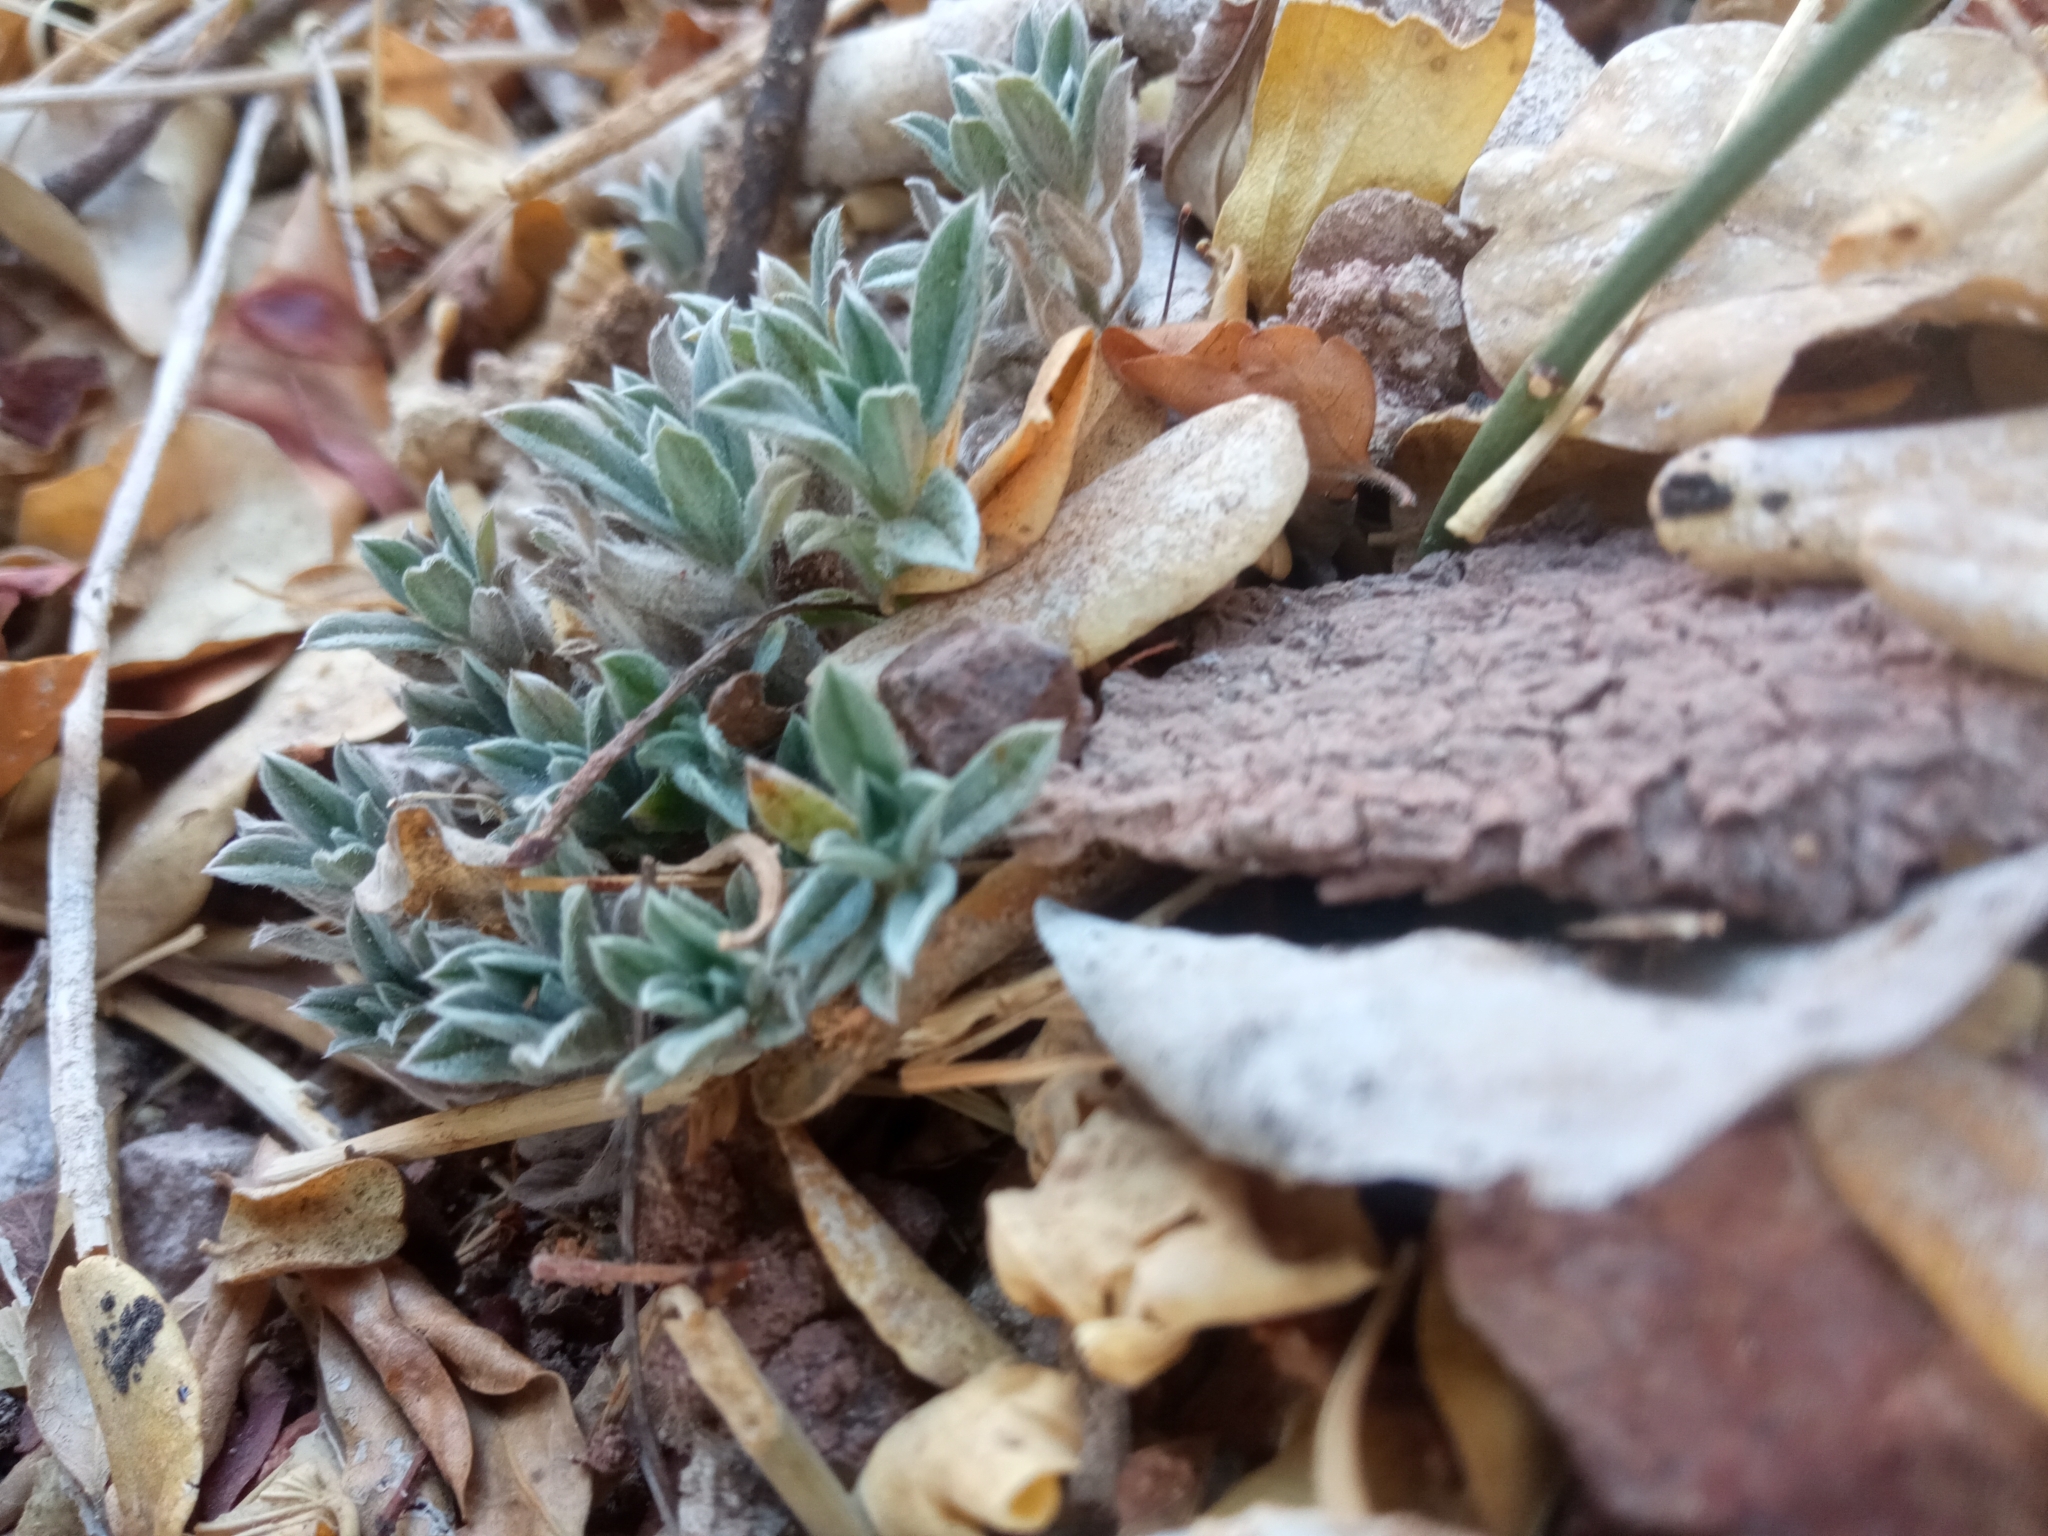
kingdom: Plantae
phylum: Tracheophyta
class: Magnoliopsida
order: Boraginales
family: Heliotropiaceae
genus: Euploca
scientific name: Euploca procumbens
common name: Fourspike heliotrope
